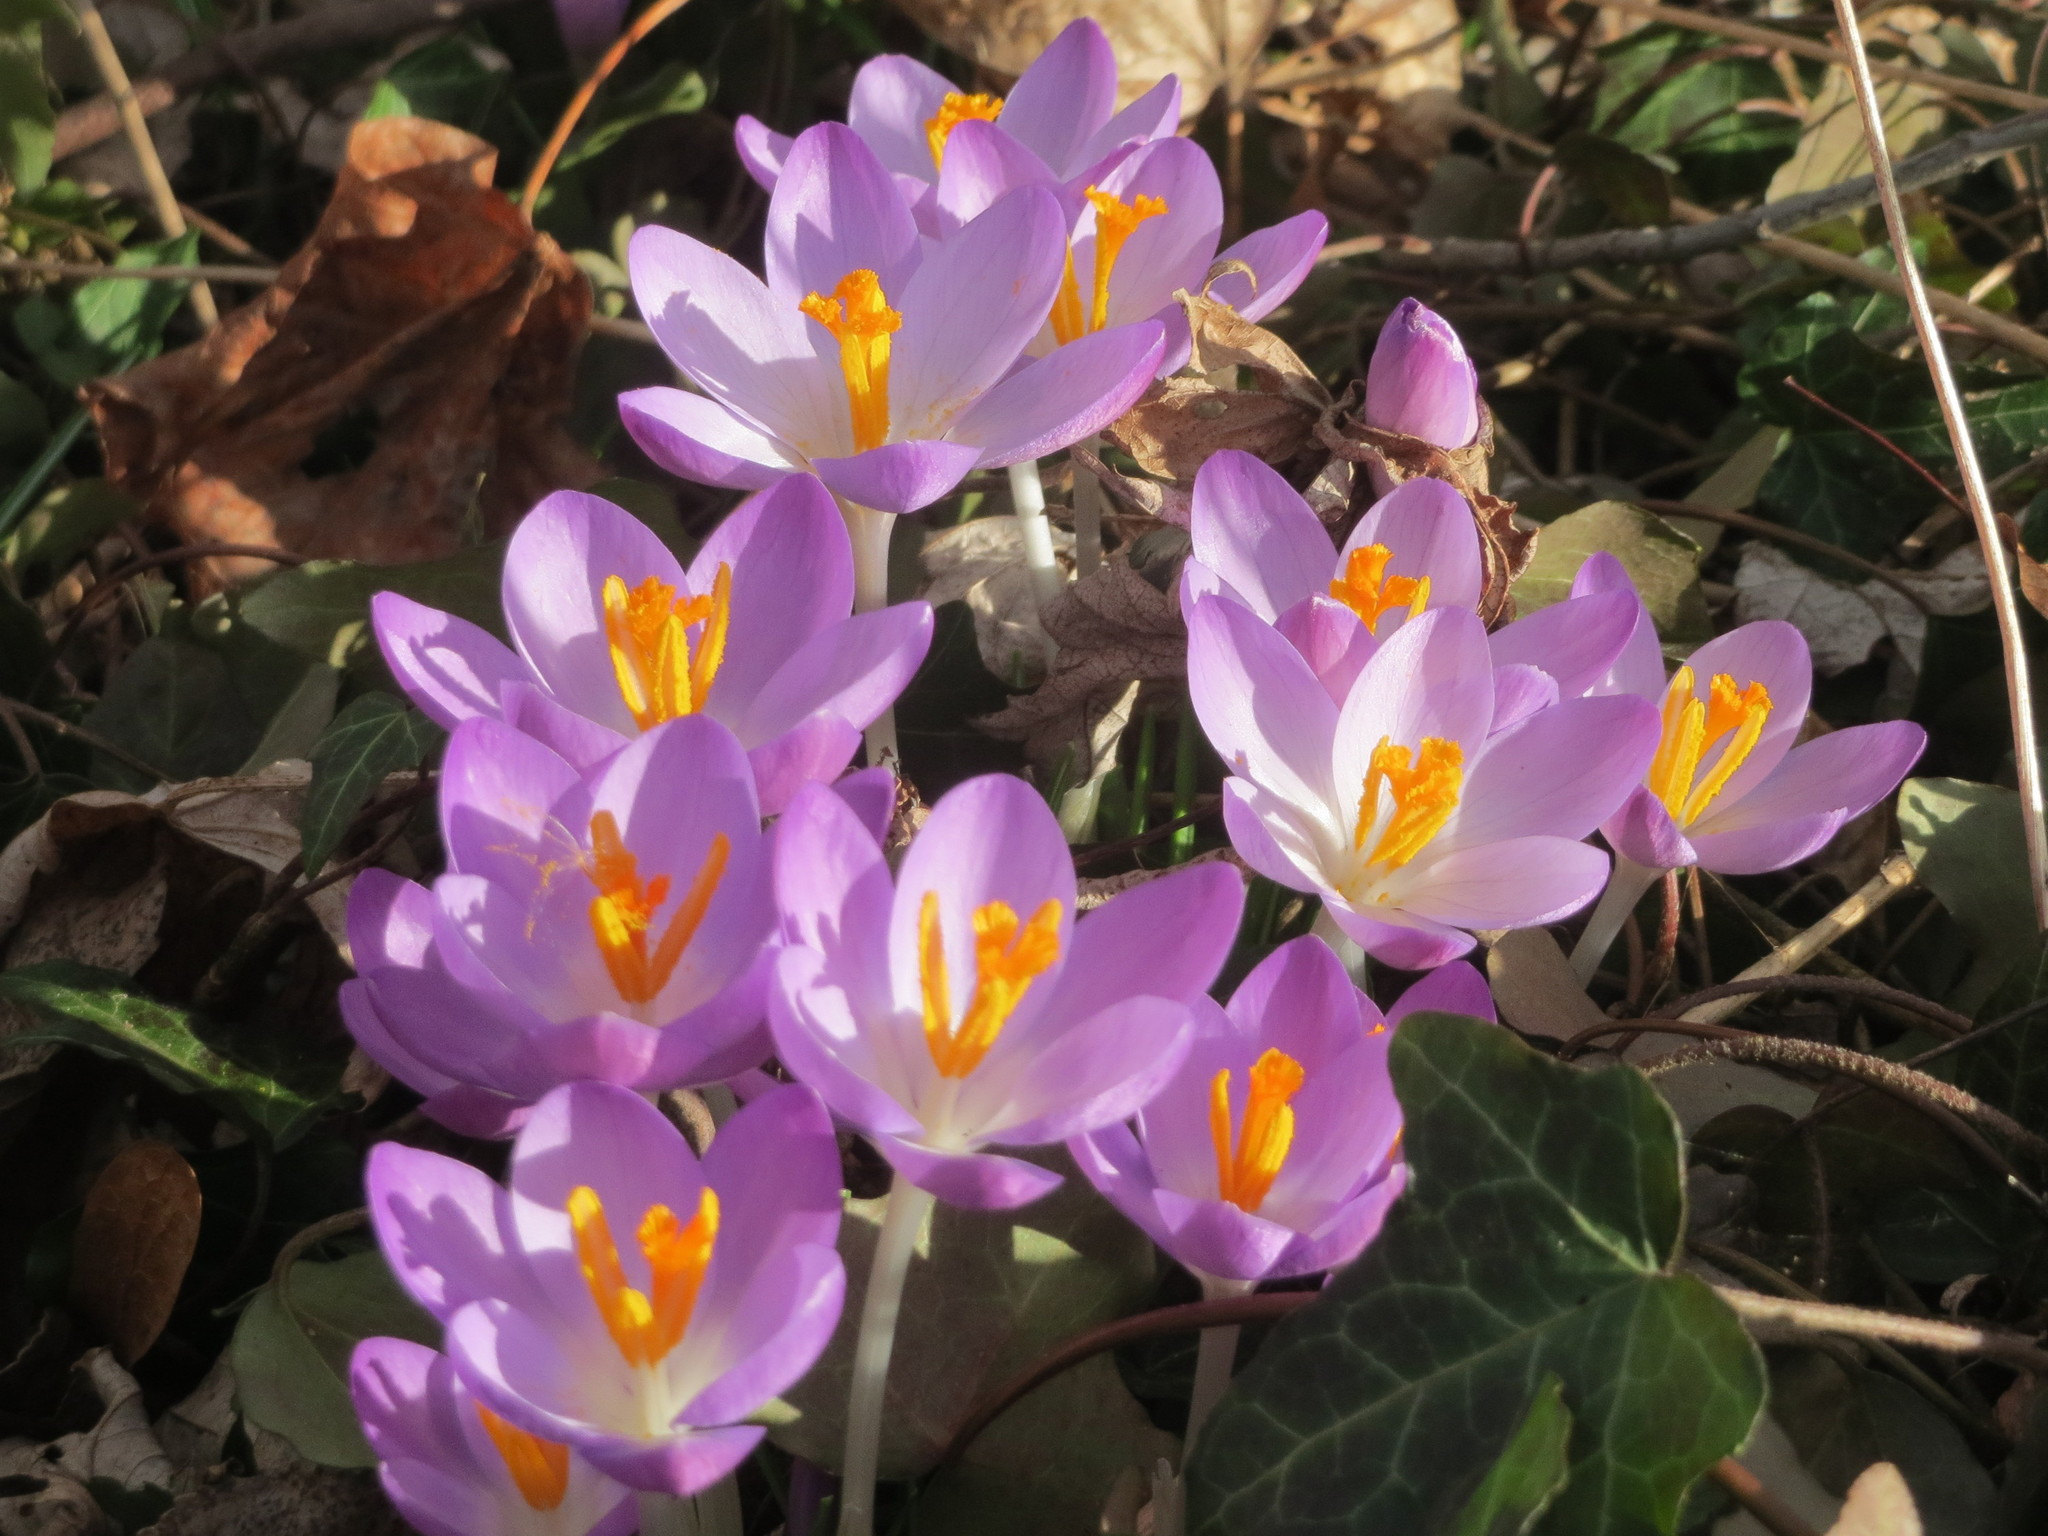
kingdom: Plantae
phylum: Tracheophyta
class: Liliopsida
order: Asparagales
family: Iridaceae
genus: Crocus
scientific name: Crocus tommasinianus
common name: Early crocus
